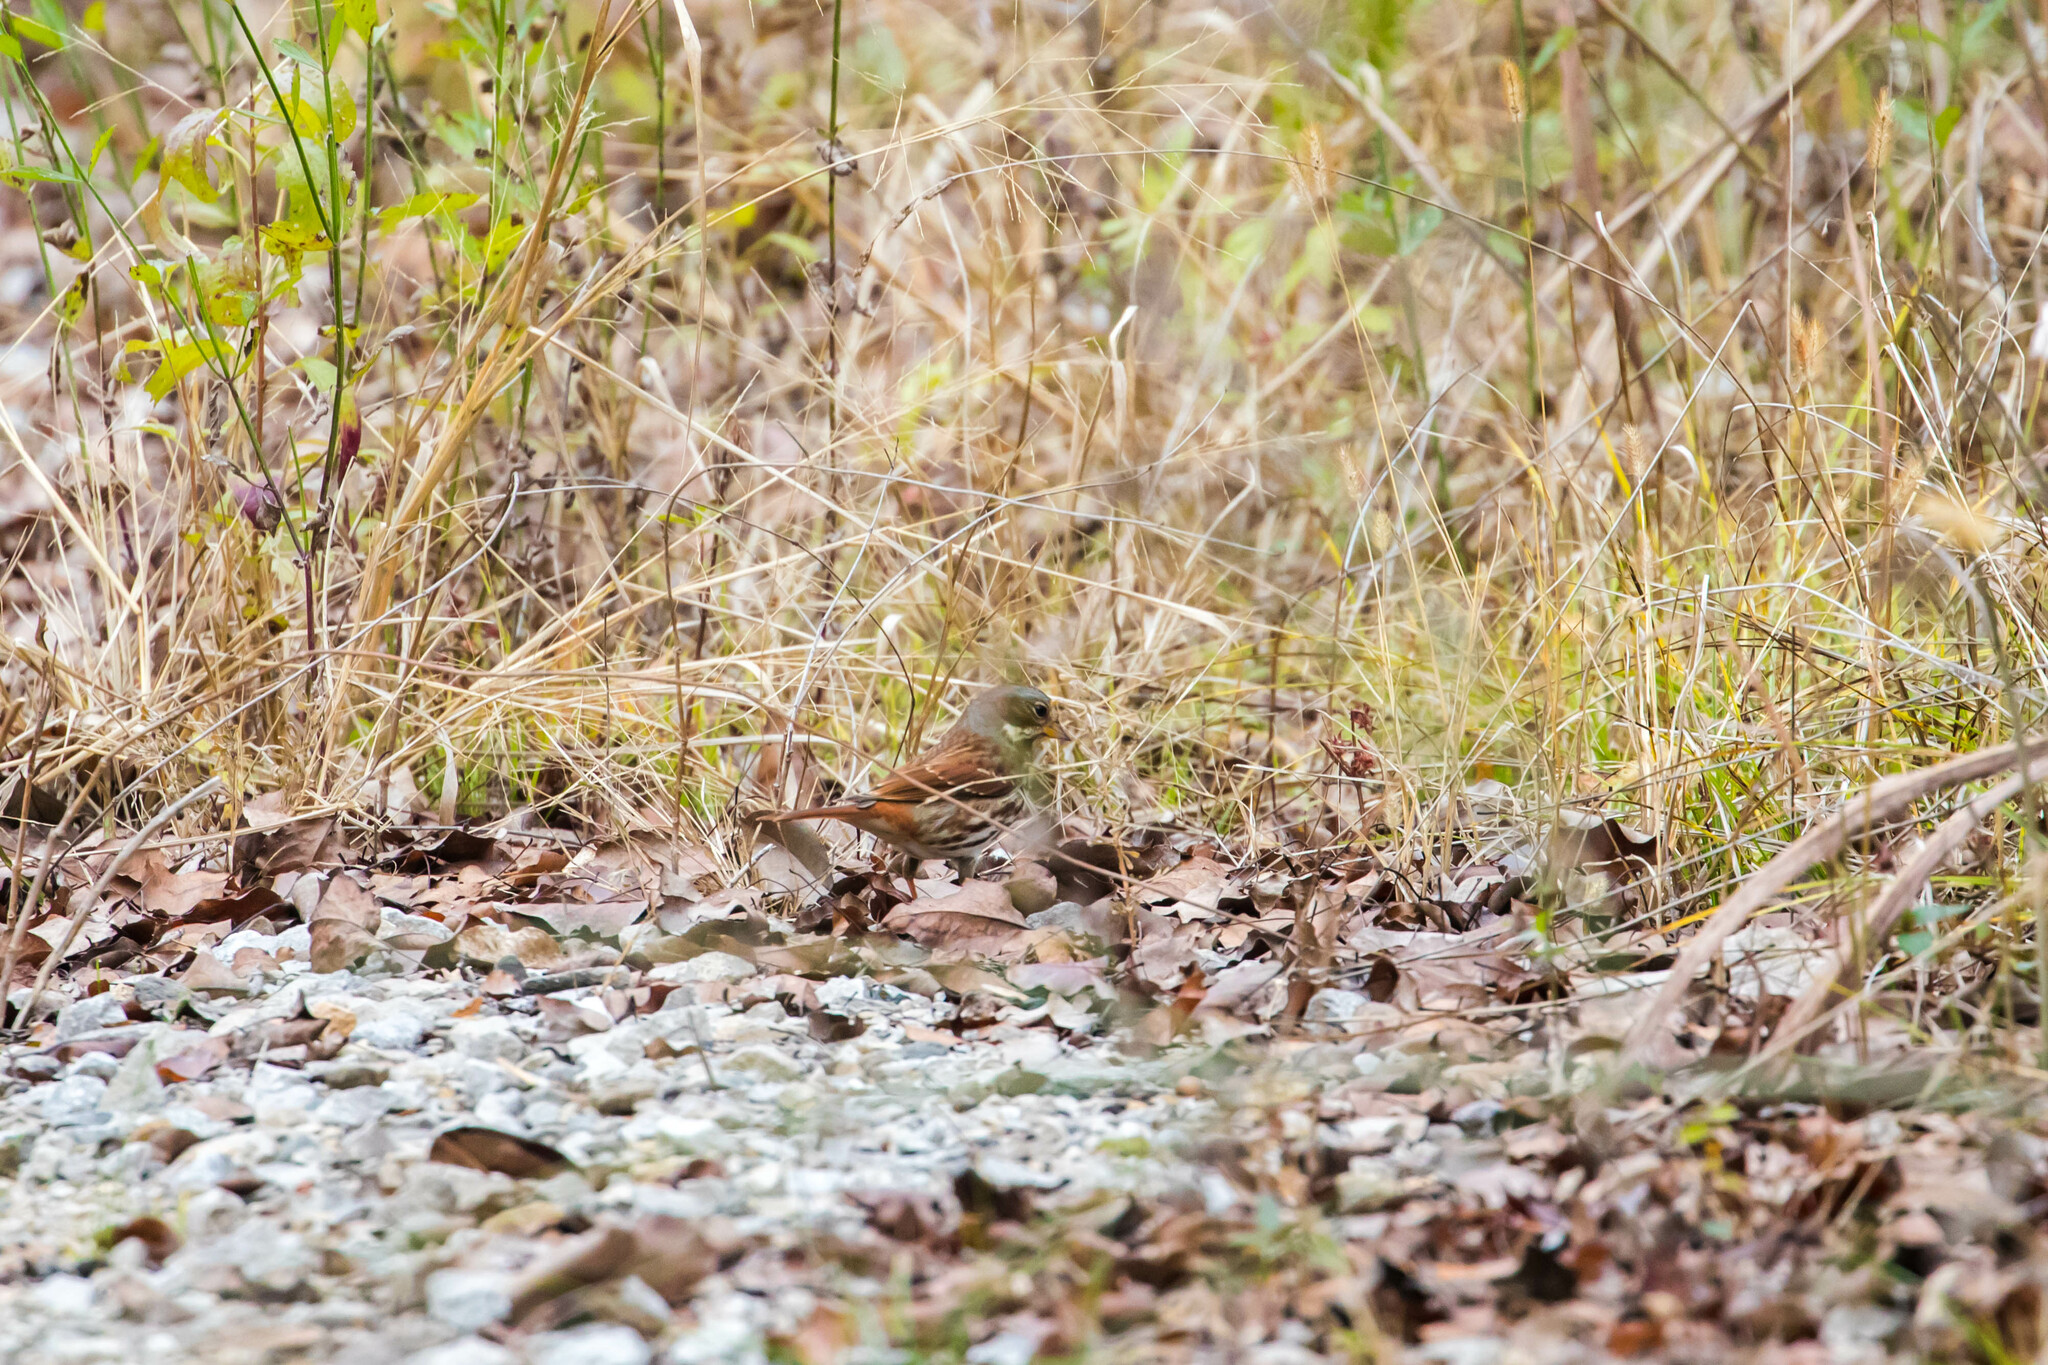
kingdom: Animalia
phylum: Chordata
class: Aves
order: Passeriformes
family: Passerellidae
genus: Passerella
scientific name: Passerella iliaca
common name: Fox sparrow
